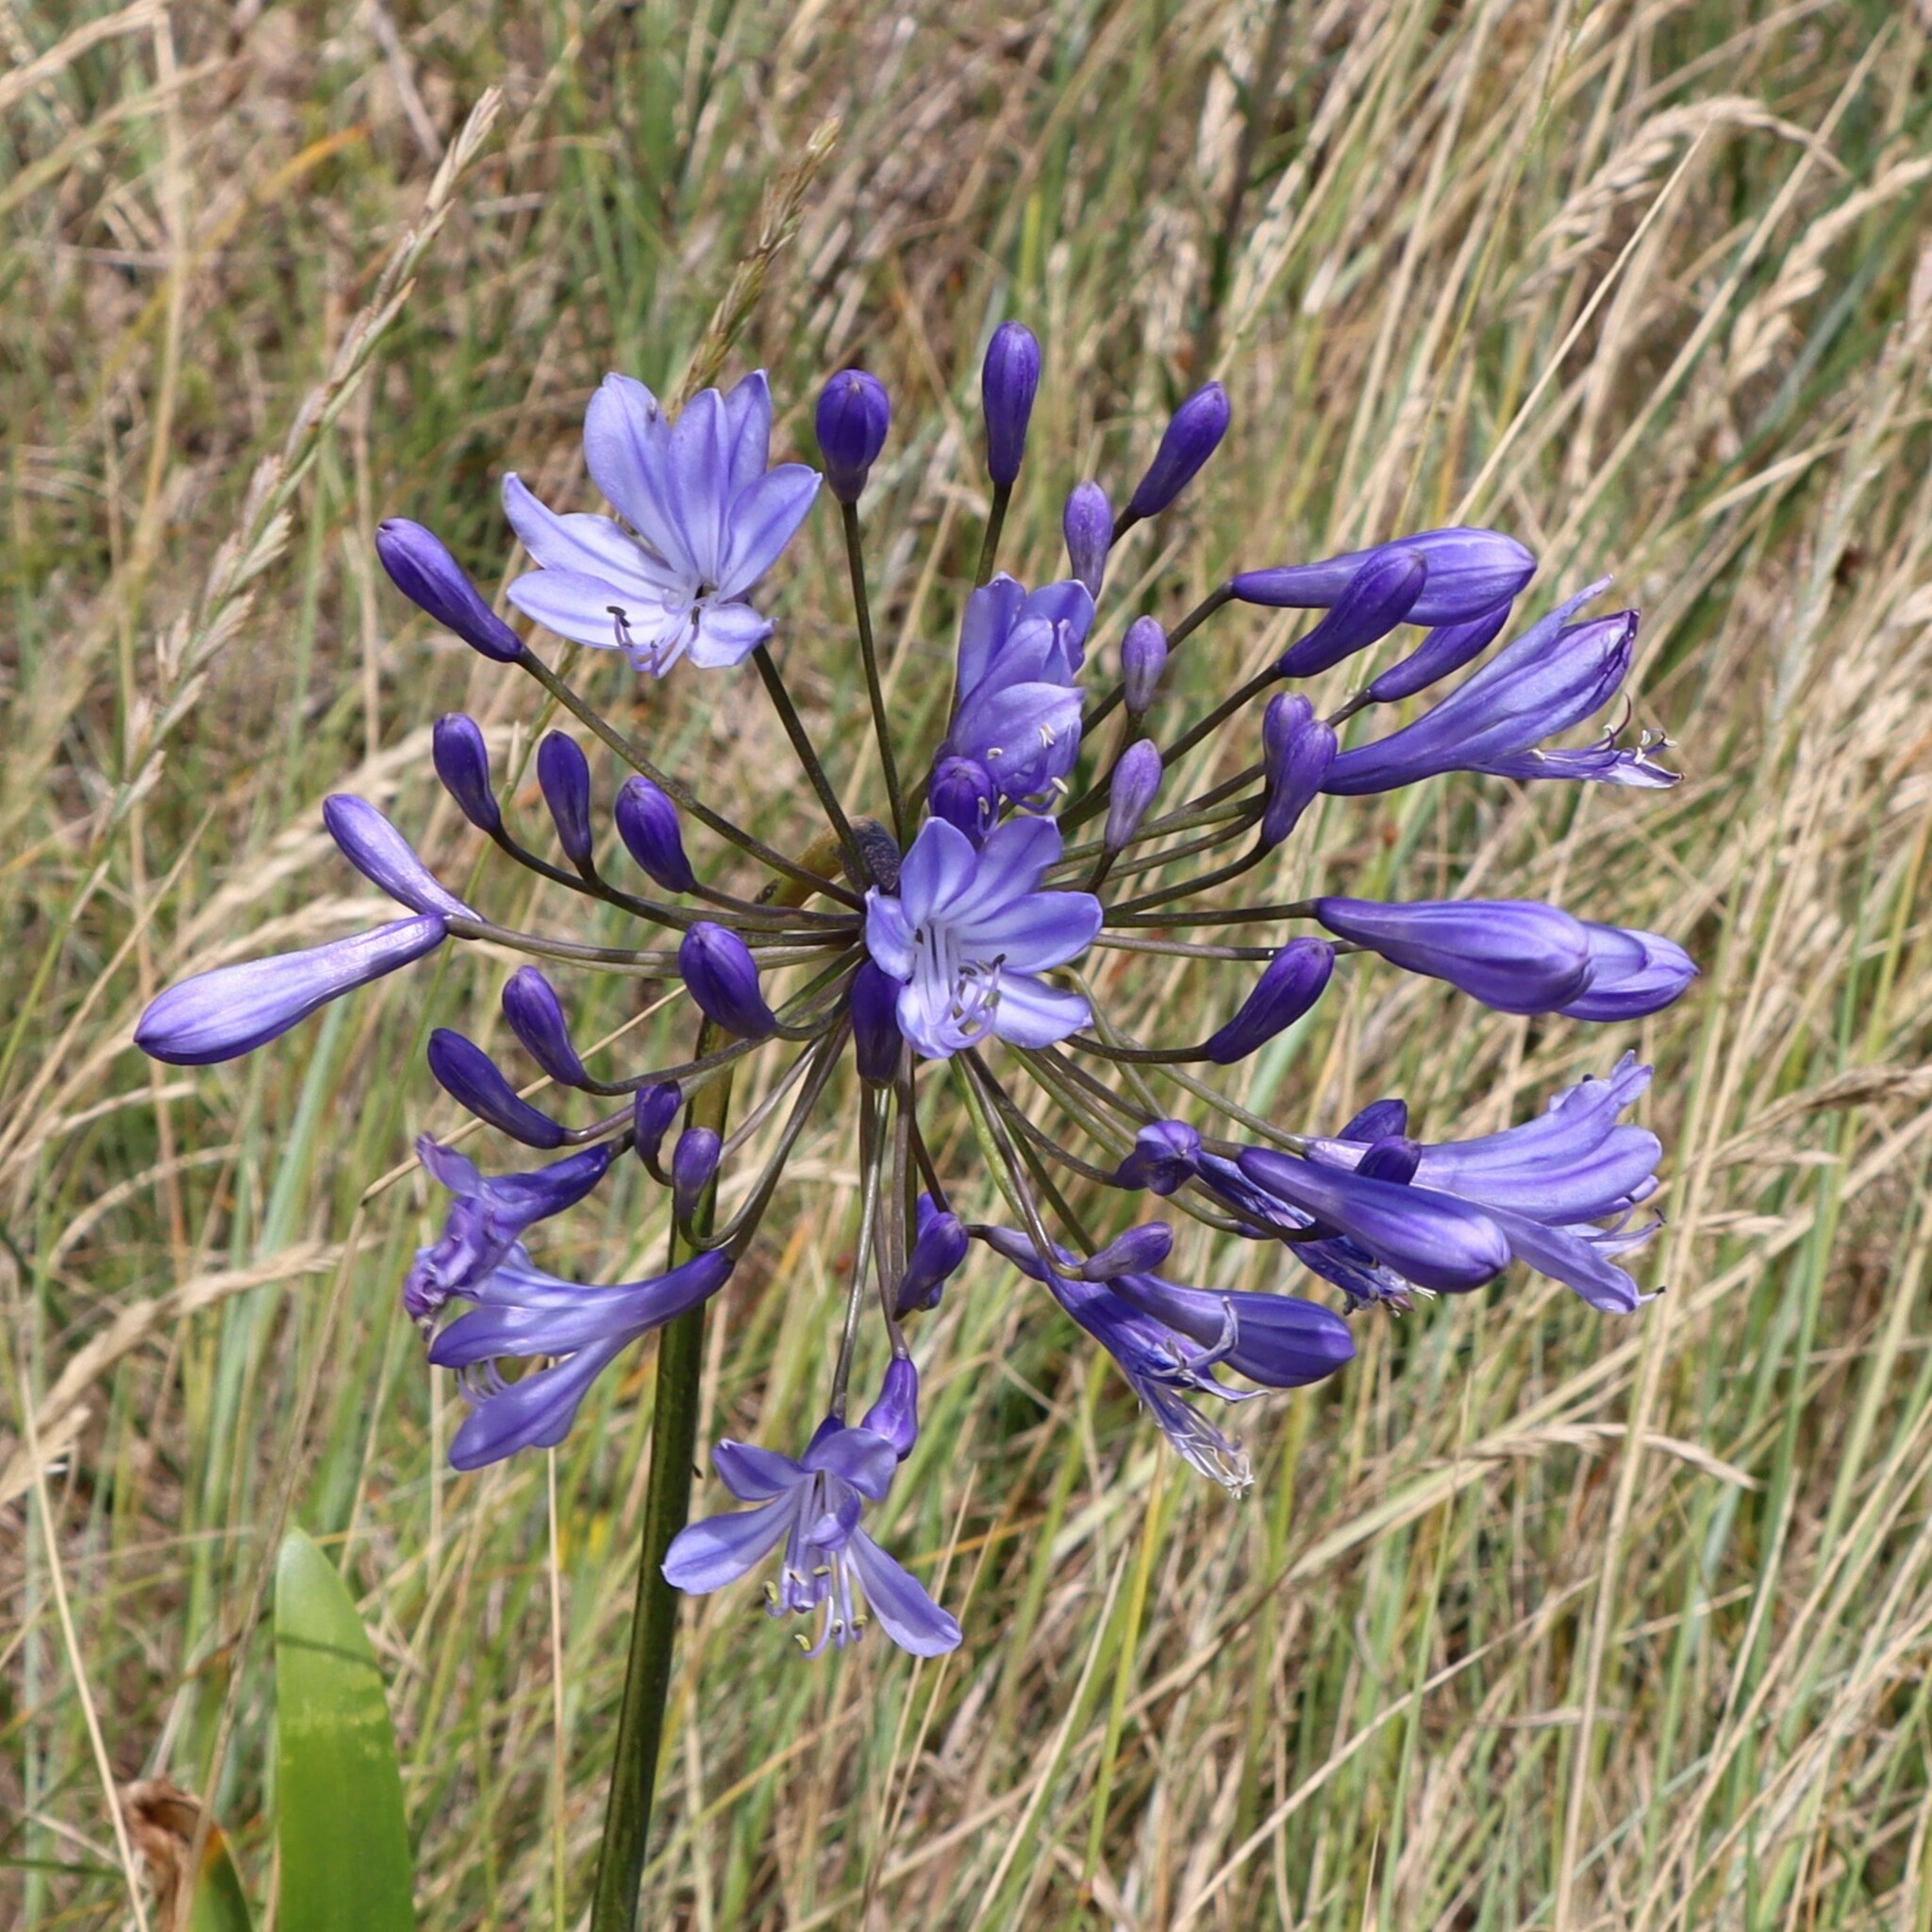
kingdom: Plantae
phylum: Tracheophyta
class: Liliopsida
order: Asparagales
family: Amaryllidaceae
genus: Agapanthus
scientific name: Agapanthus praecox
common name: African-lily
